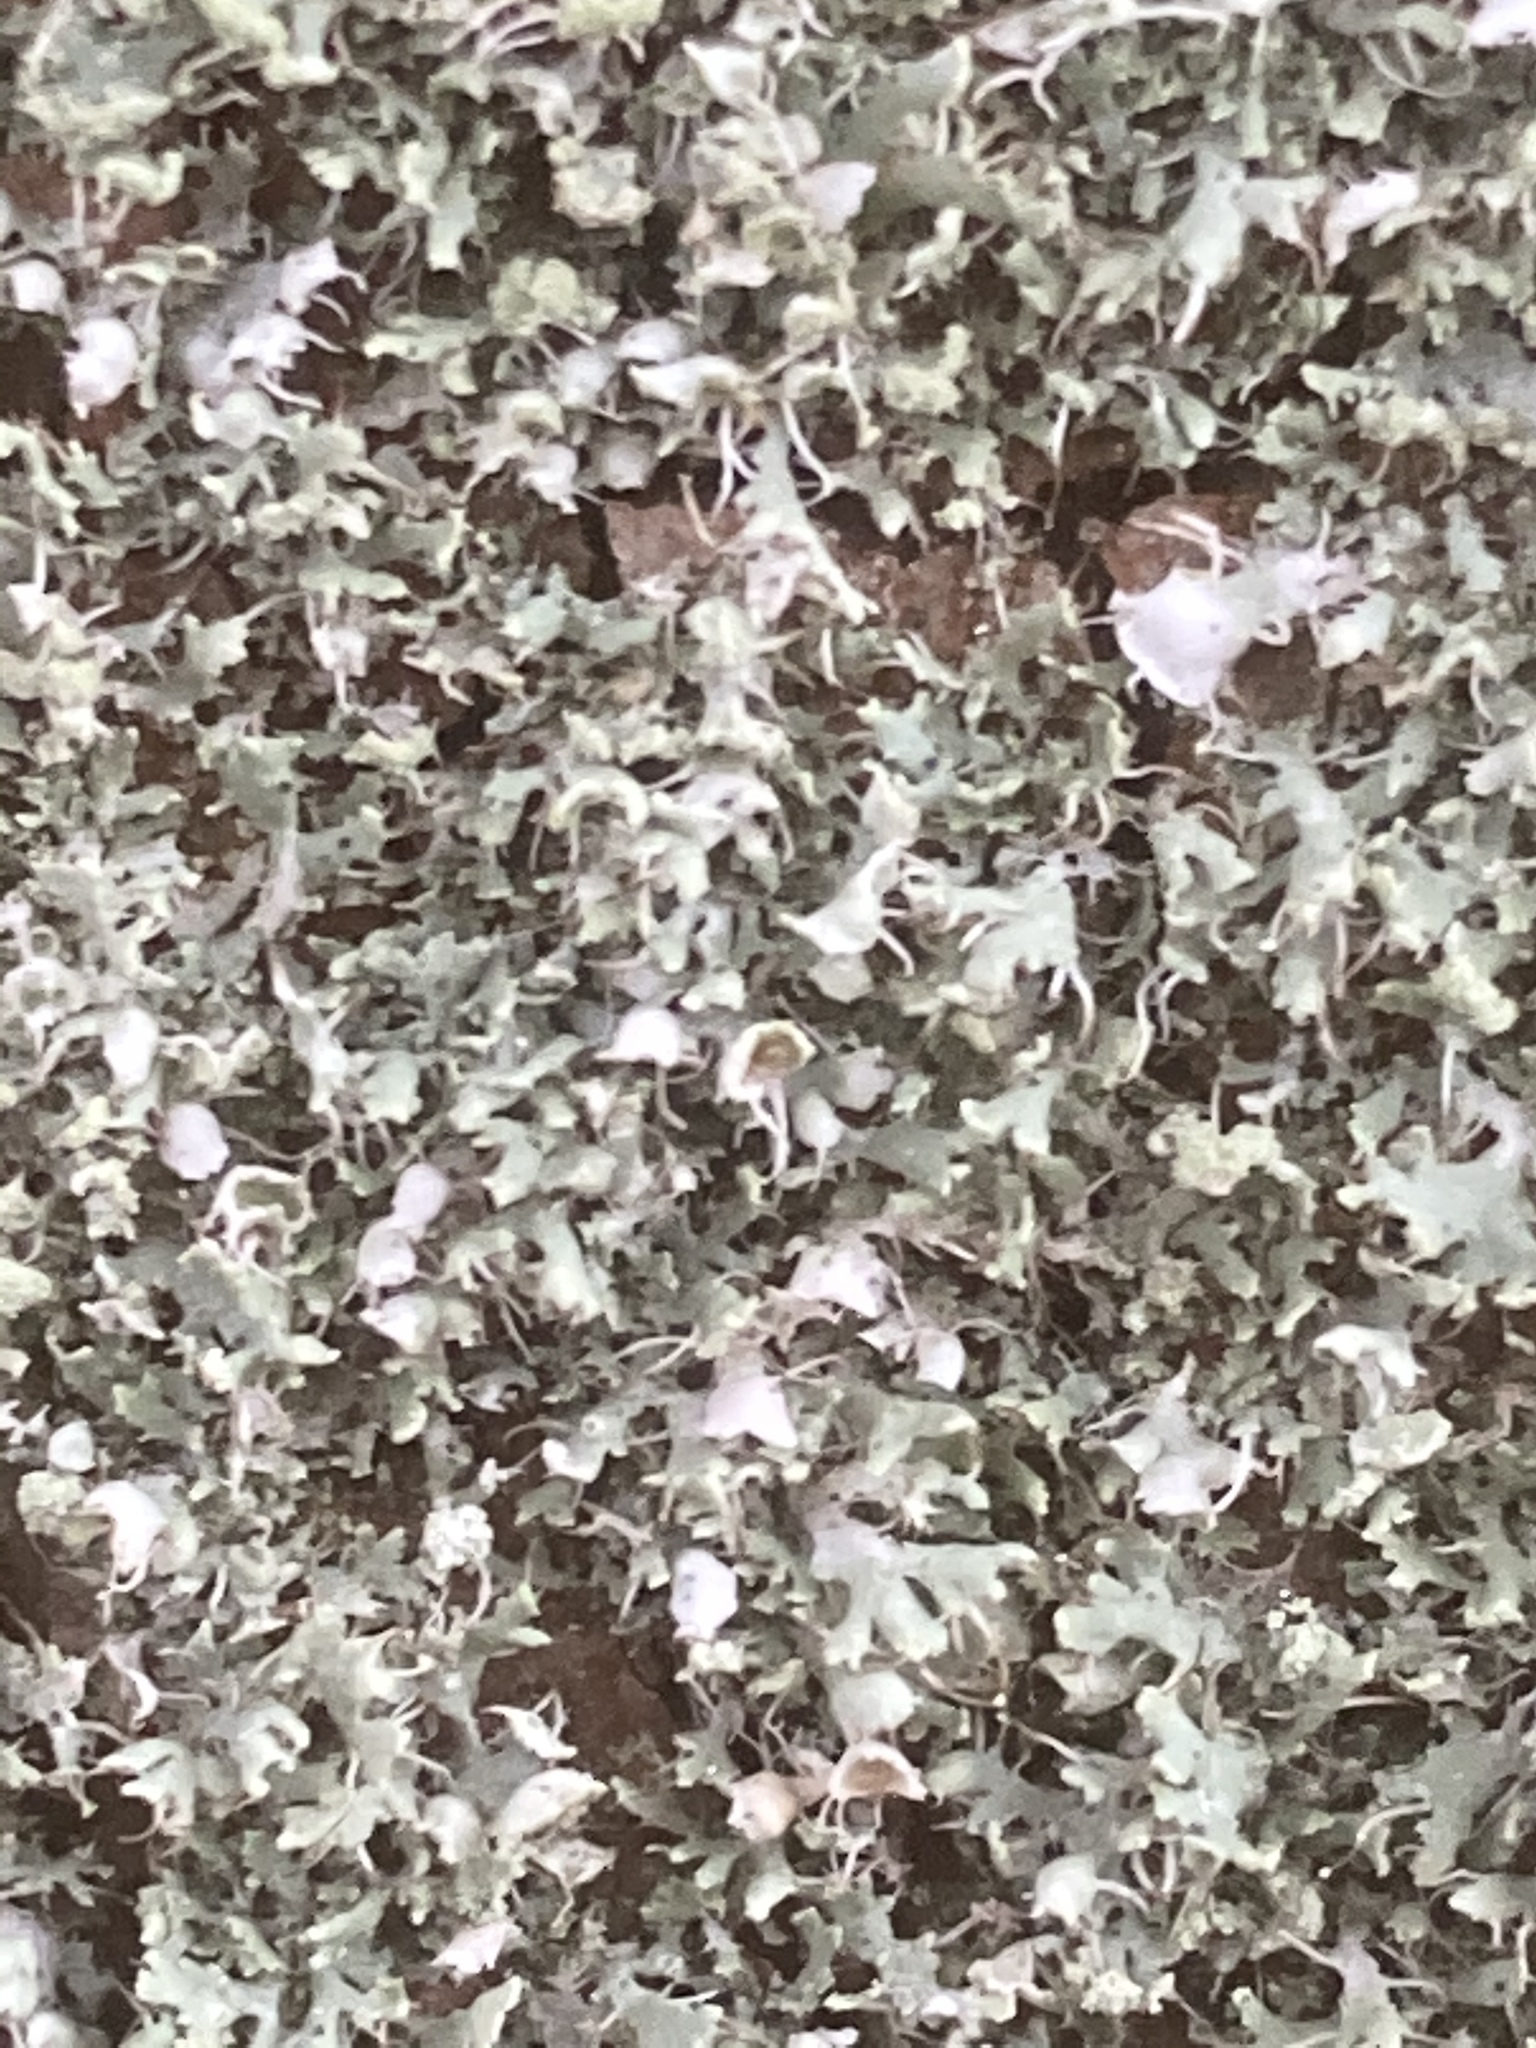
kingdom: Fungi
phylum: Ascomycota
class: Lecanoromycetes
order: Caliciales
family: Physciaceae
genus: Physcia
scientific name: Physcia adscendens
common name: Hooded rosette lichen
